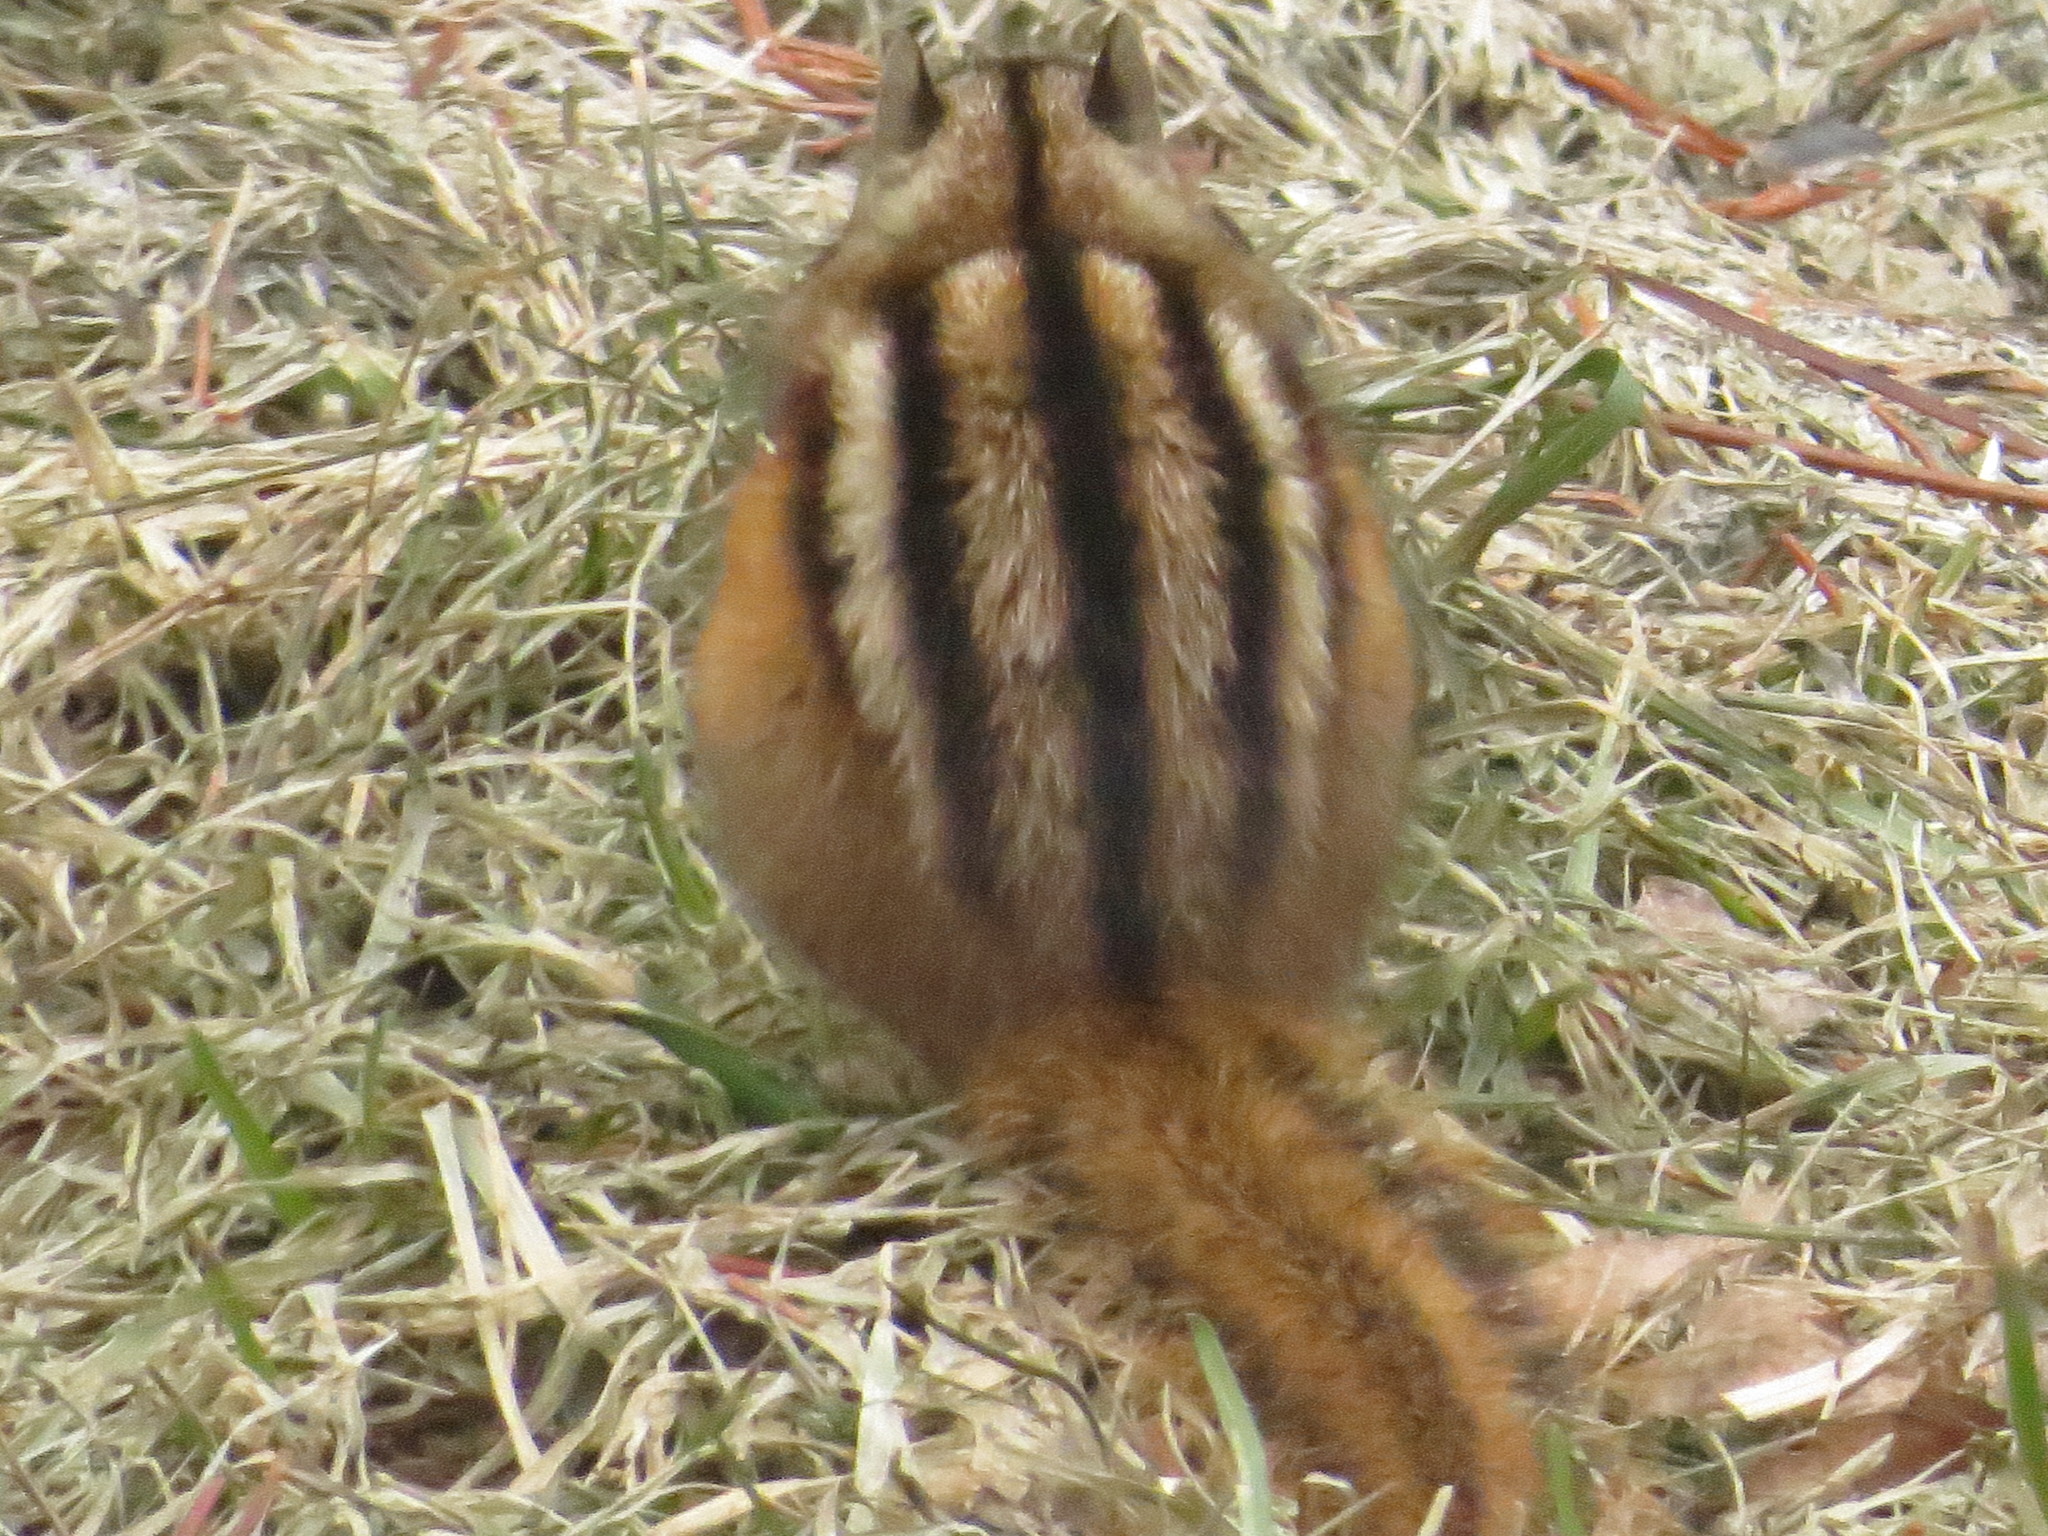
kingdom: Animalia
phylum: Chordata
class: Mammalia
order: Rodentia
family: Sciuridae
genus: Tamias
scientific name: Tamias minimus
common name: Least chipmunk
